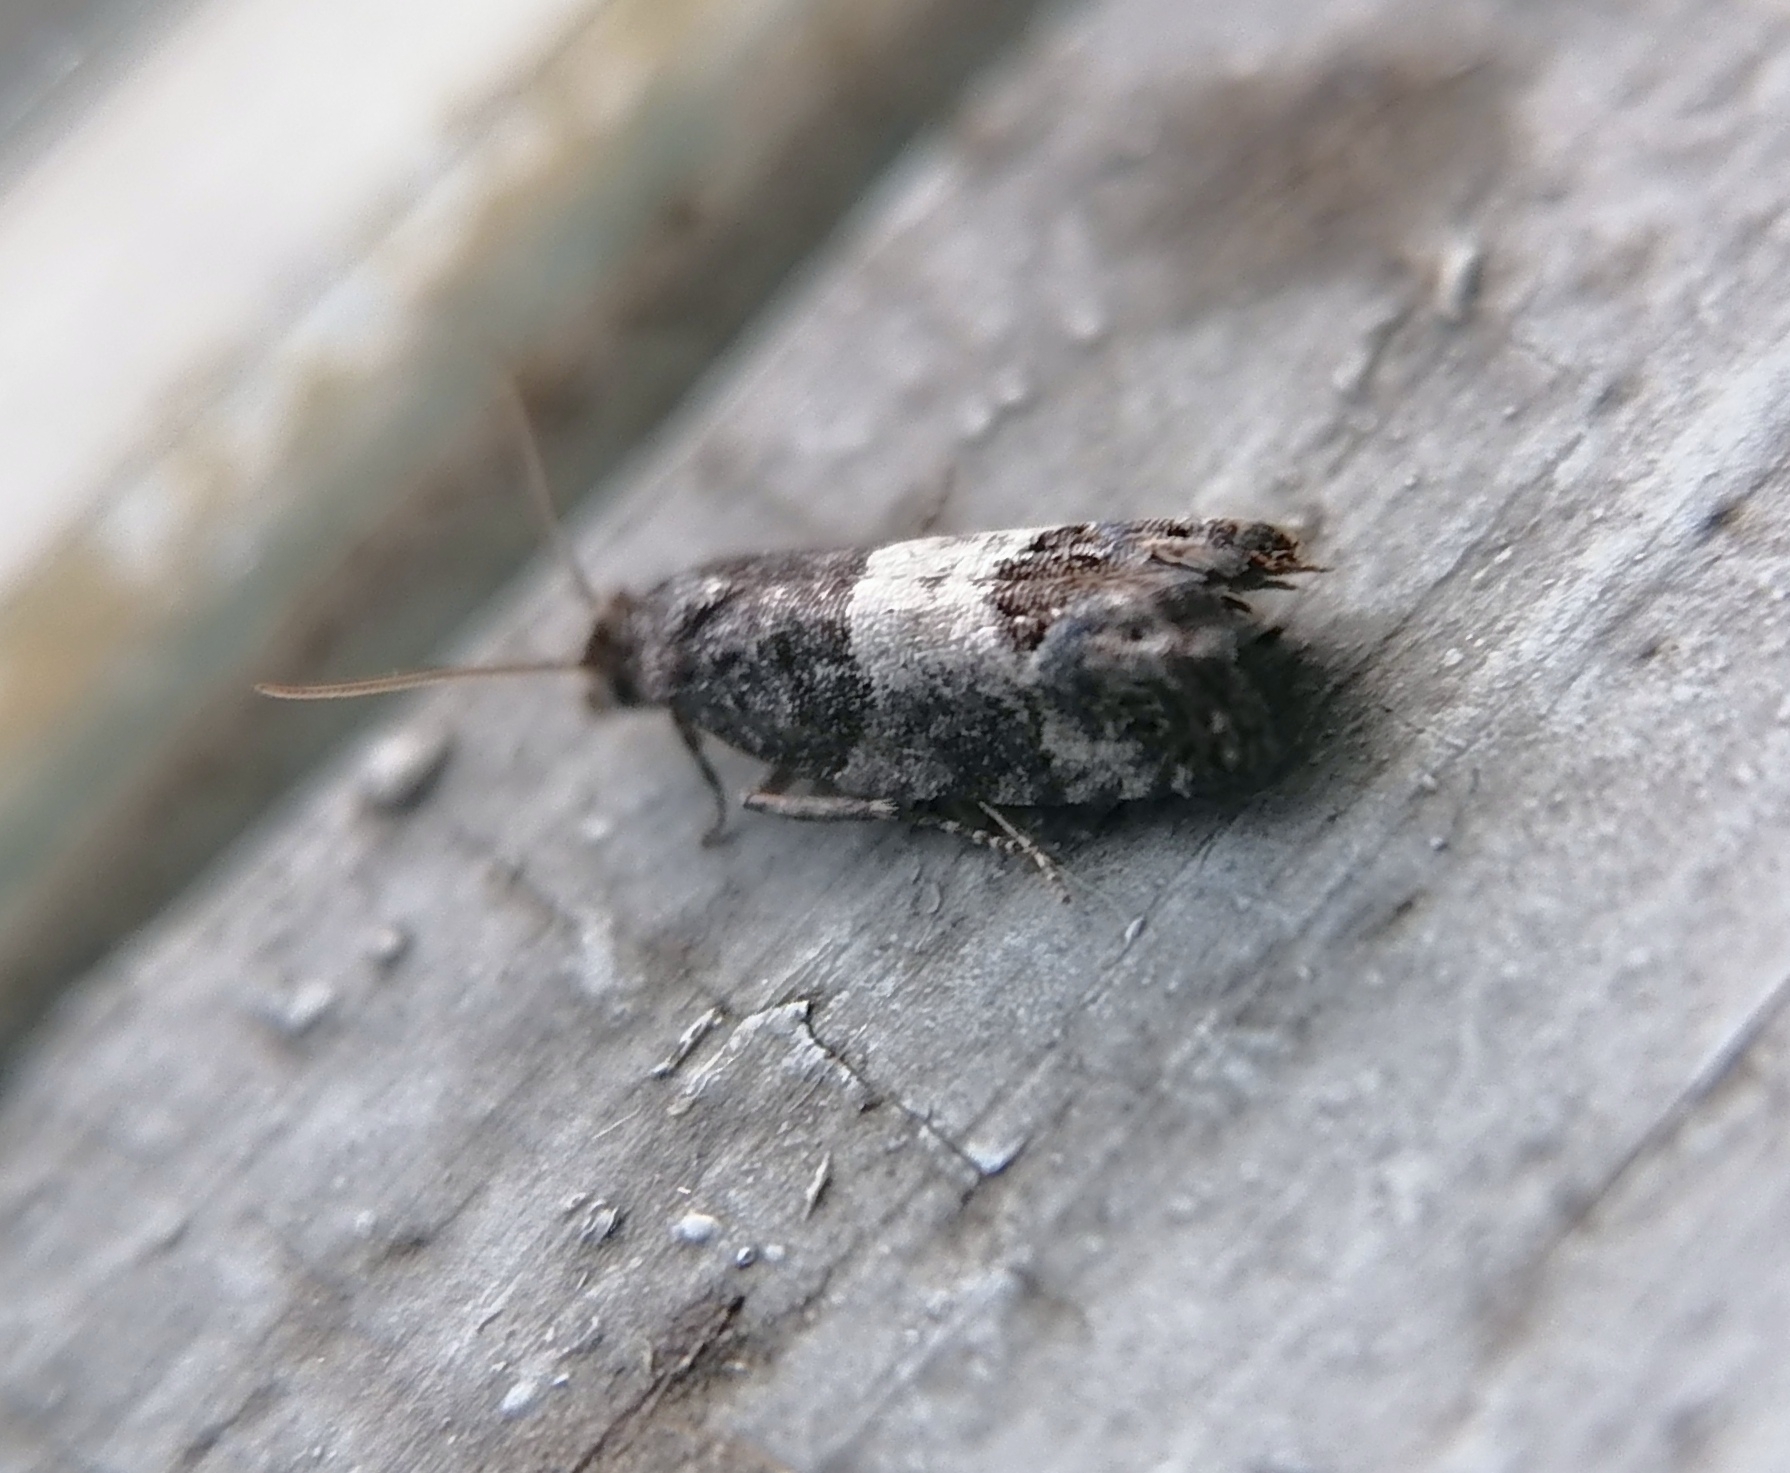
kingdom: Animalia
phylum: Arthropoda
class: Insecta
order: Lepidoptera
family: Tortricidae
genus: Spilonota
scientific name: Spilonota ocellana
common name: Bud moth
